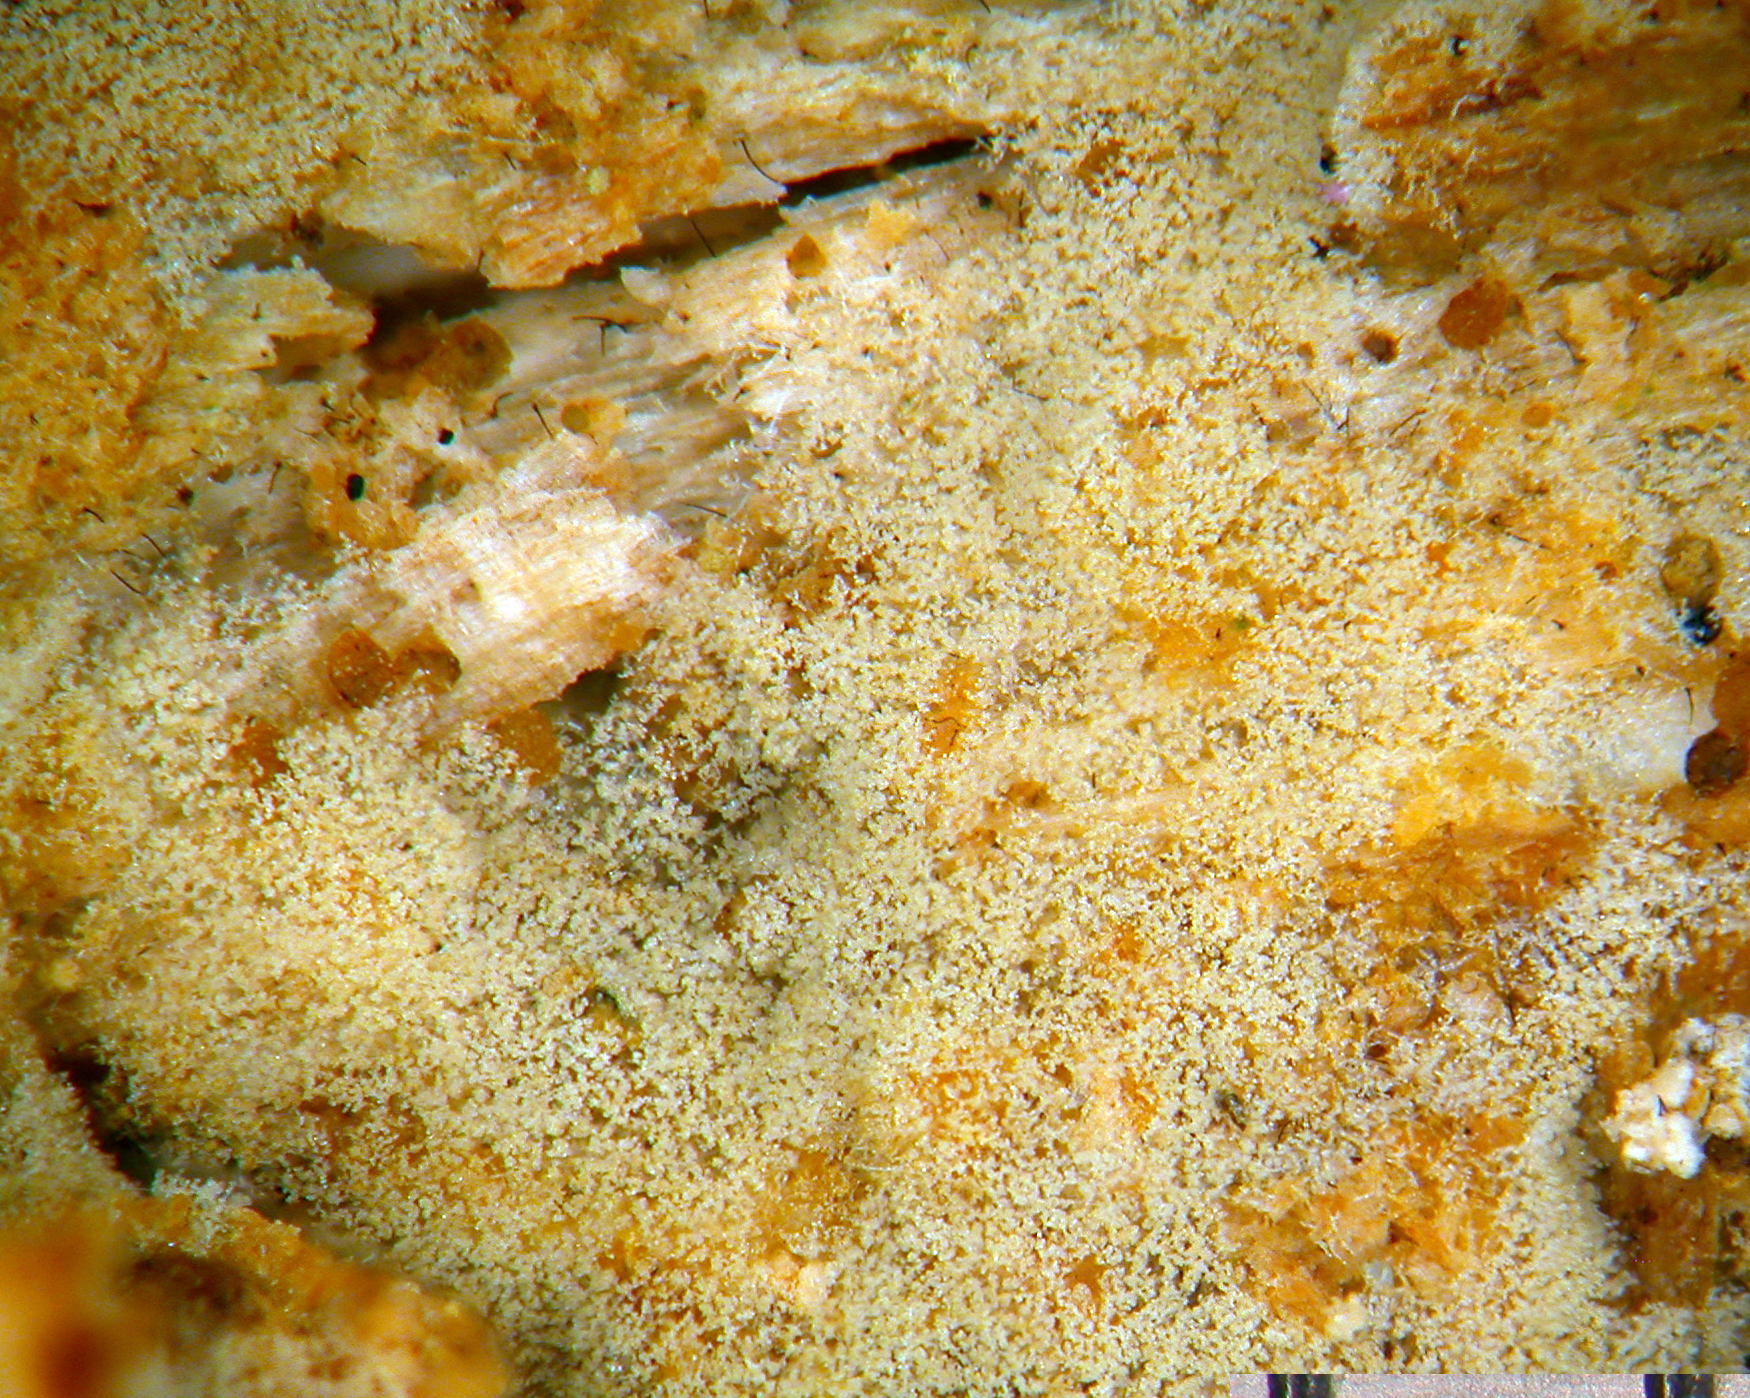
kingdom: Fungi
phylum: Basidiomycota
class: Agaricomycetes
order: Cantharellales
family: Botryobasidiaceae
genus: Botryobasidium
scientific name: Botryobasidium isabellinum
